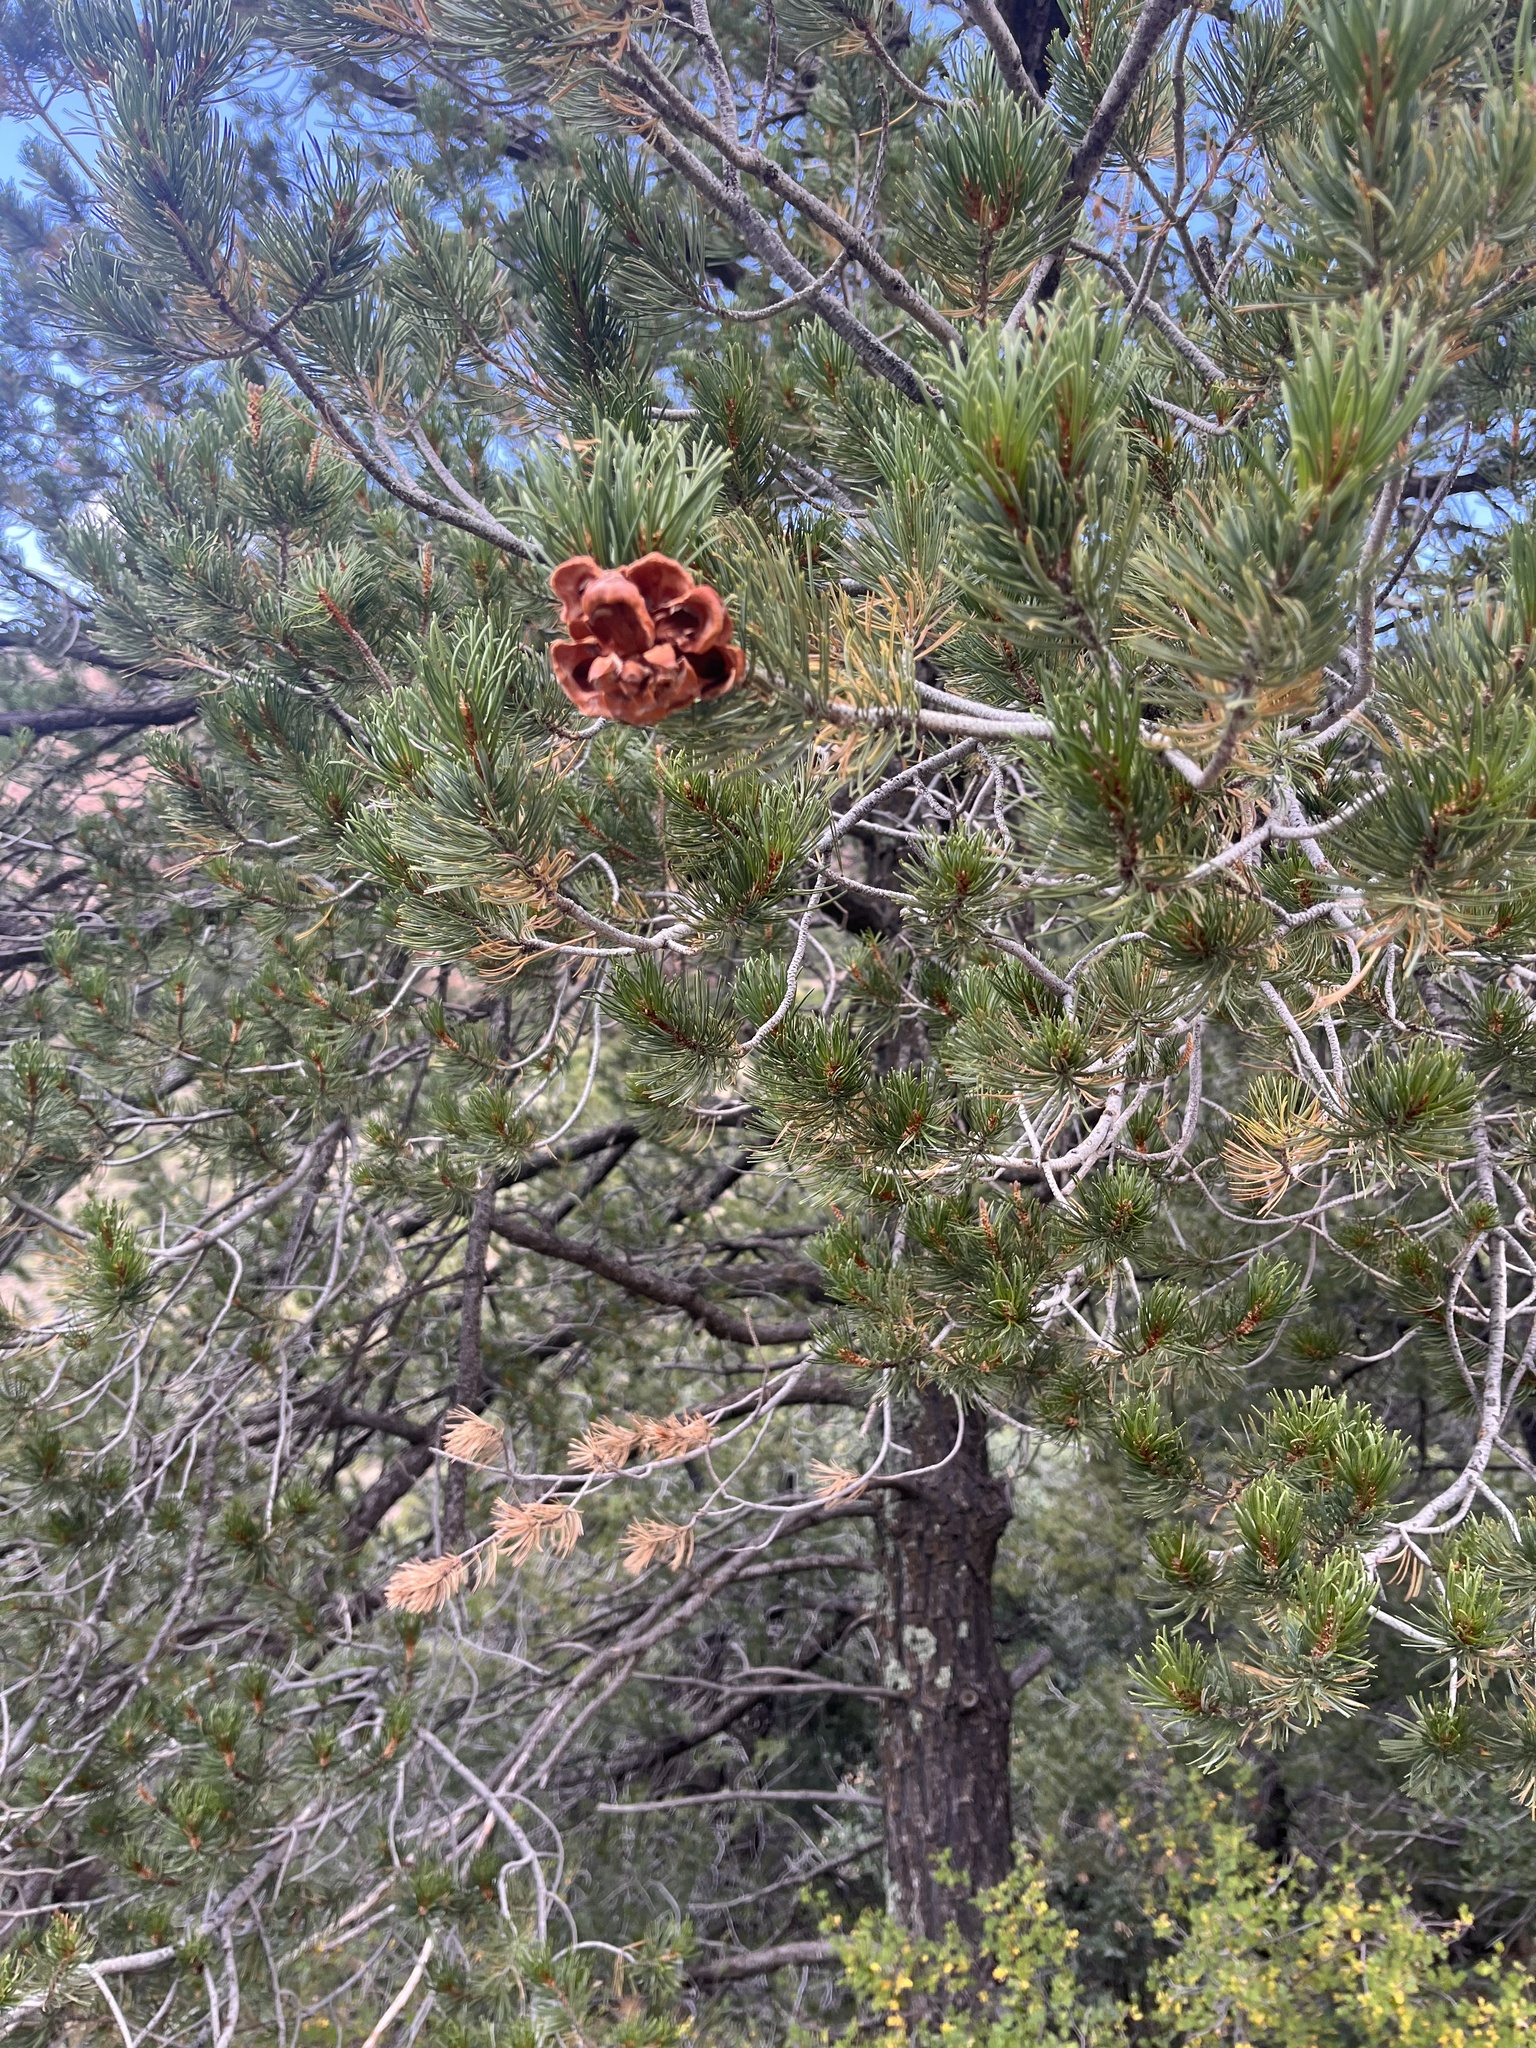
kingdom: Plantae
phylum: Tracheophyta
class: Pinopsida
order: Pinales
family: Pinaceae
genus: Pinus
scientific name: Pinus cembroides
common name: Mexican nut pine
